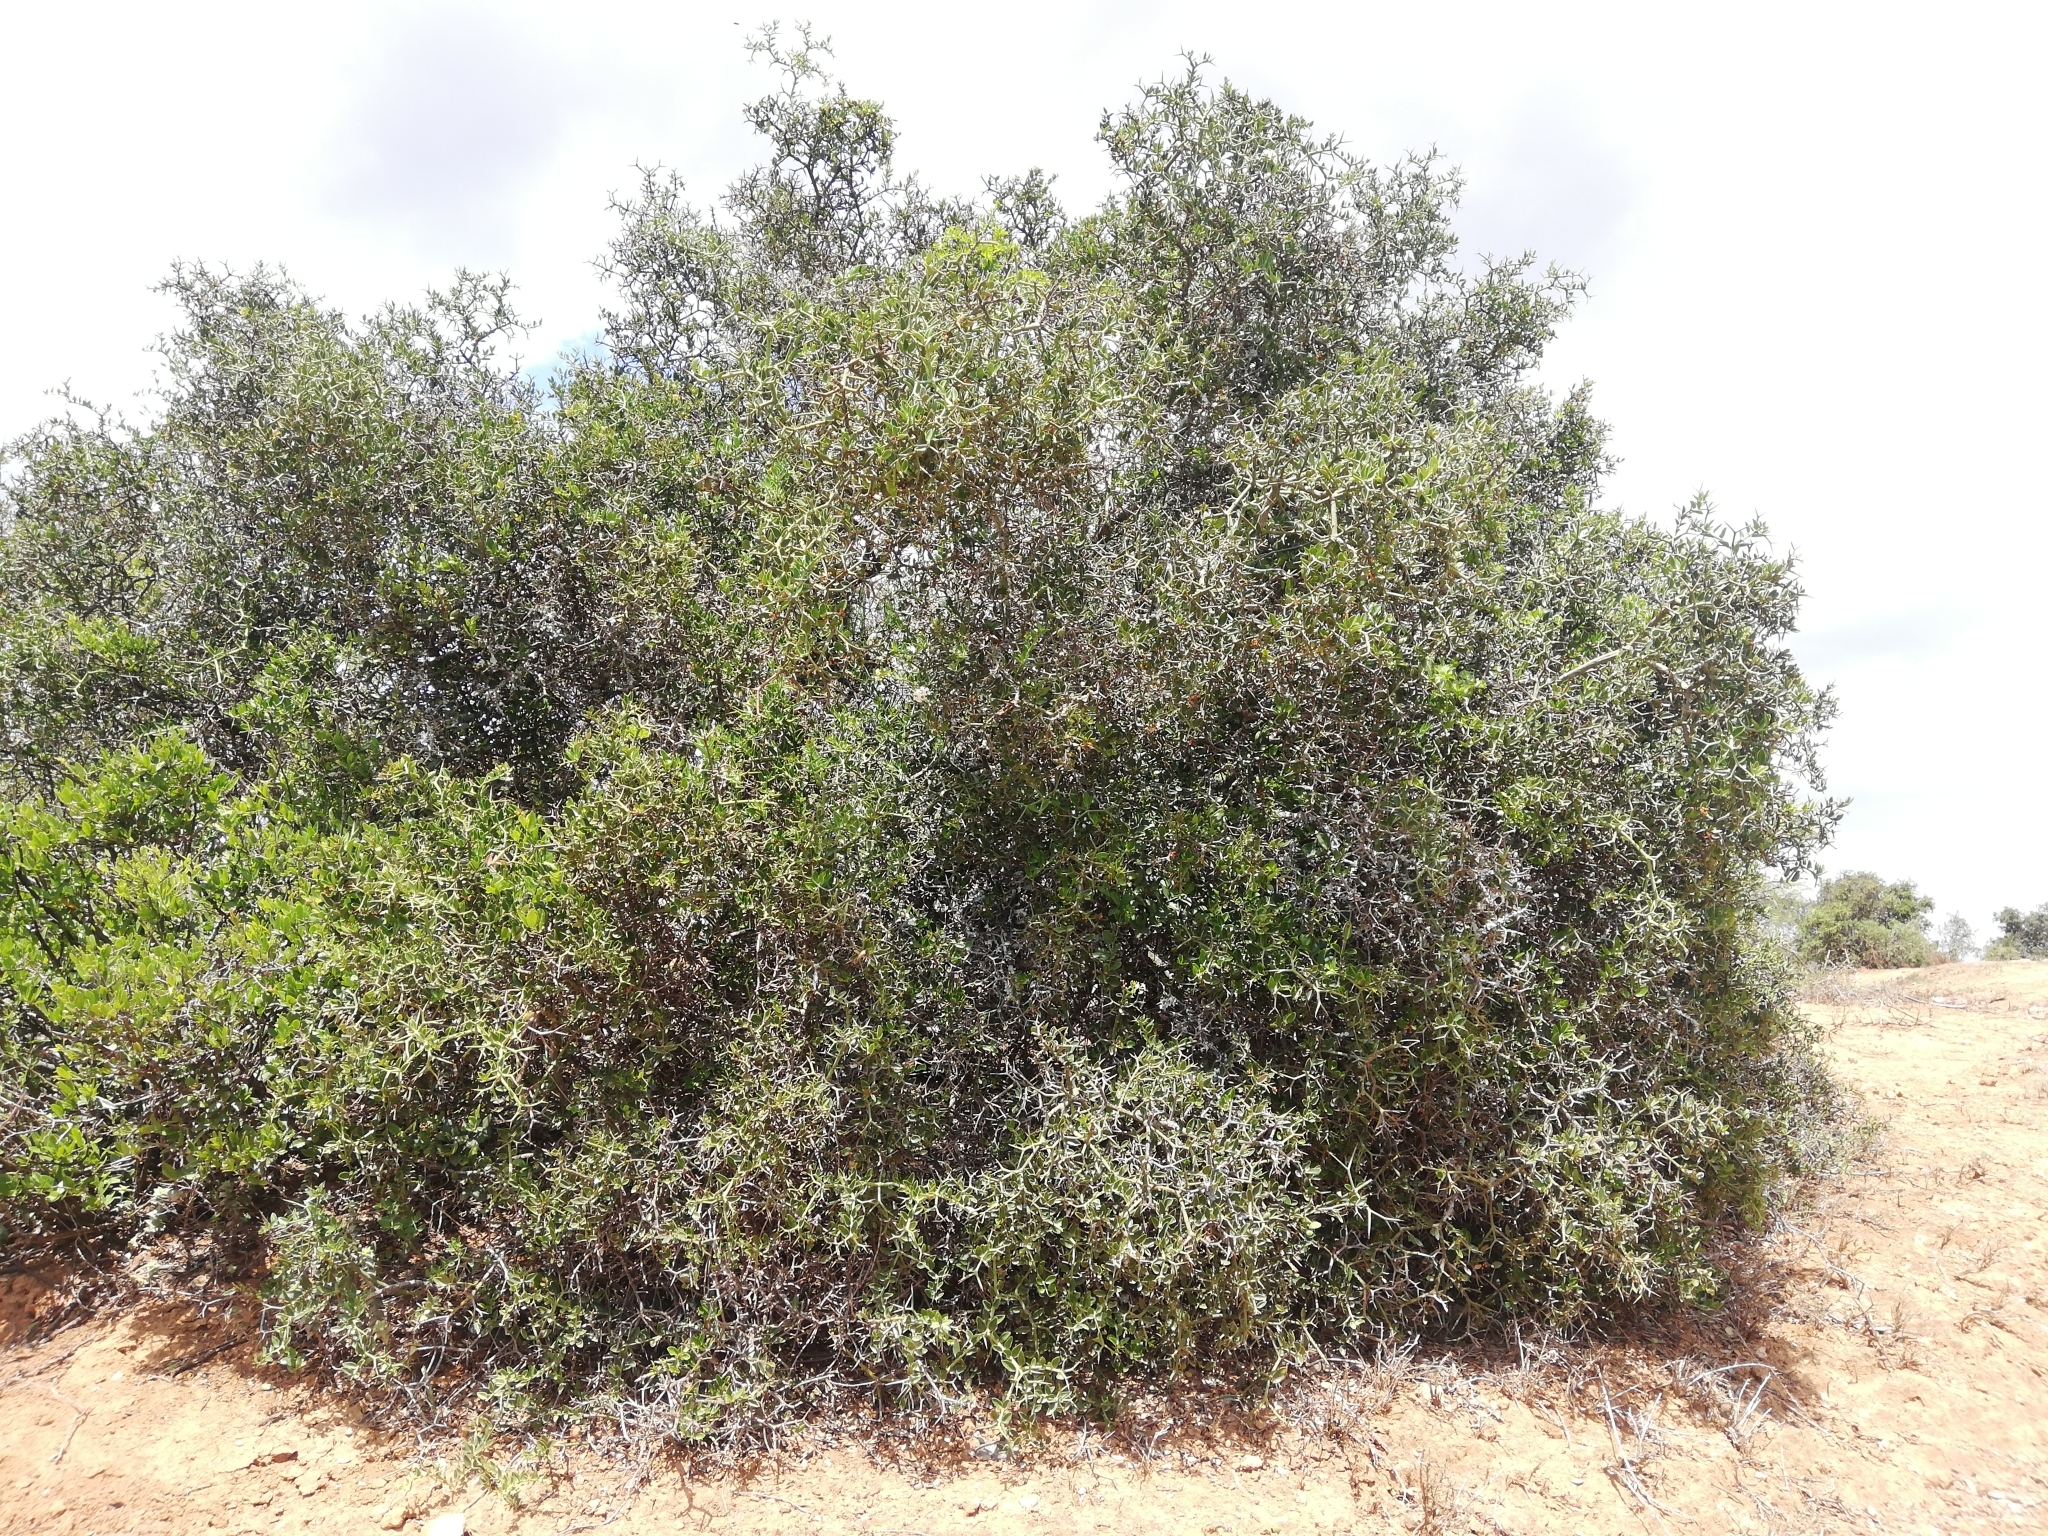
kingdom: Plantae
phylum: Tracheophyta
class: Magnoliopsida
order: Gentianales
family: Apocynaceae
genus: Carissa
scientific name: Carissa haematocarpa
